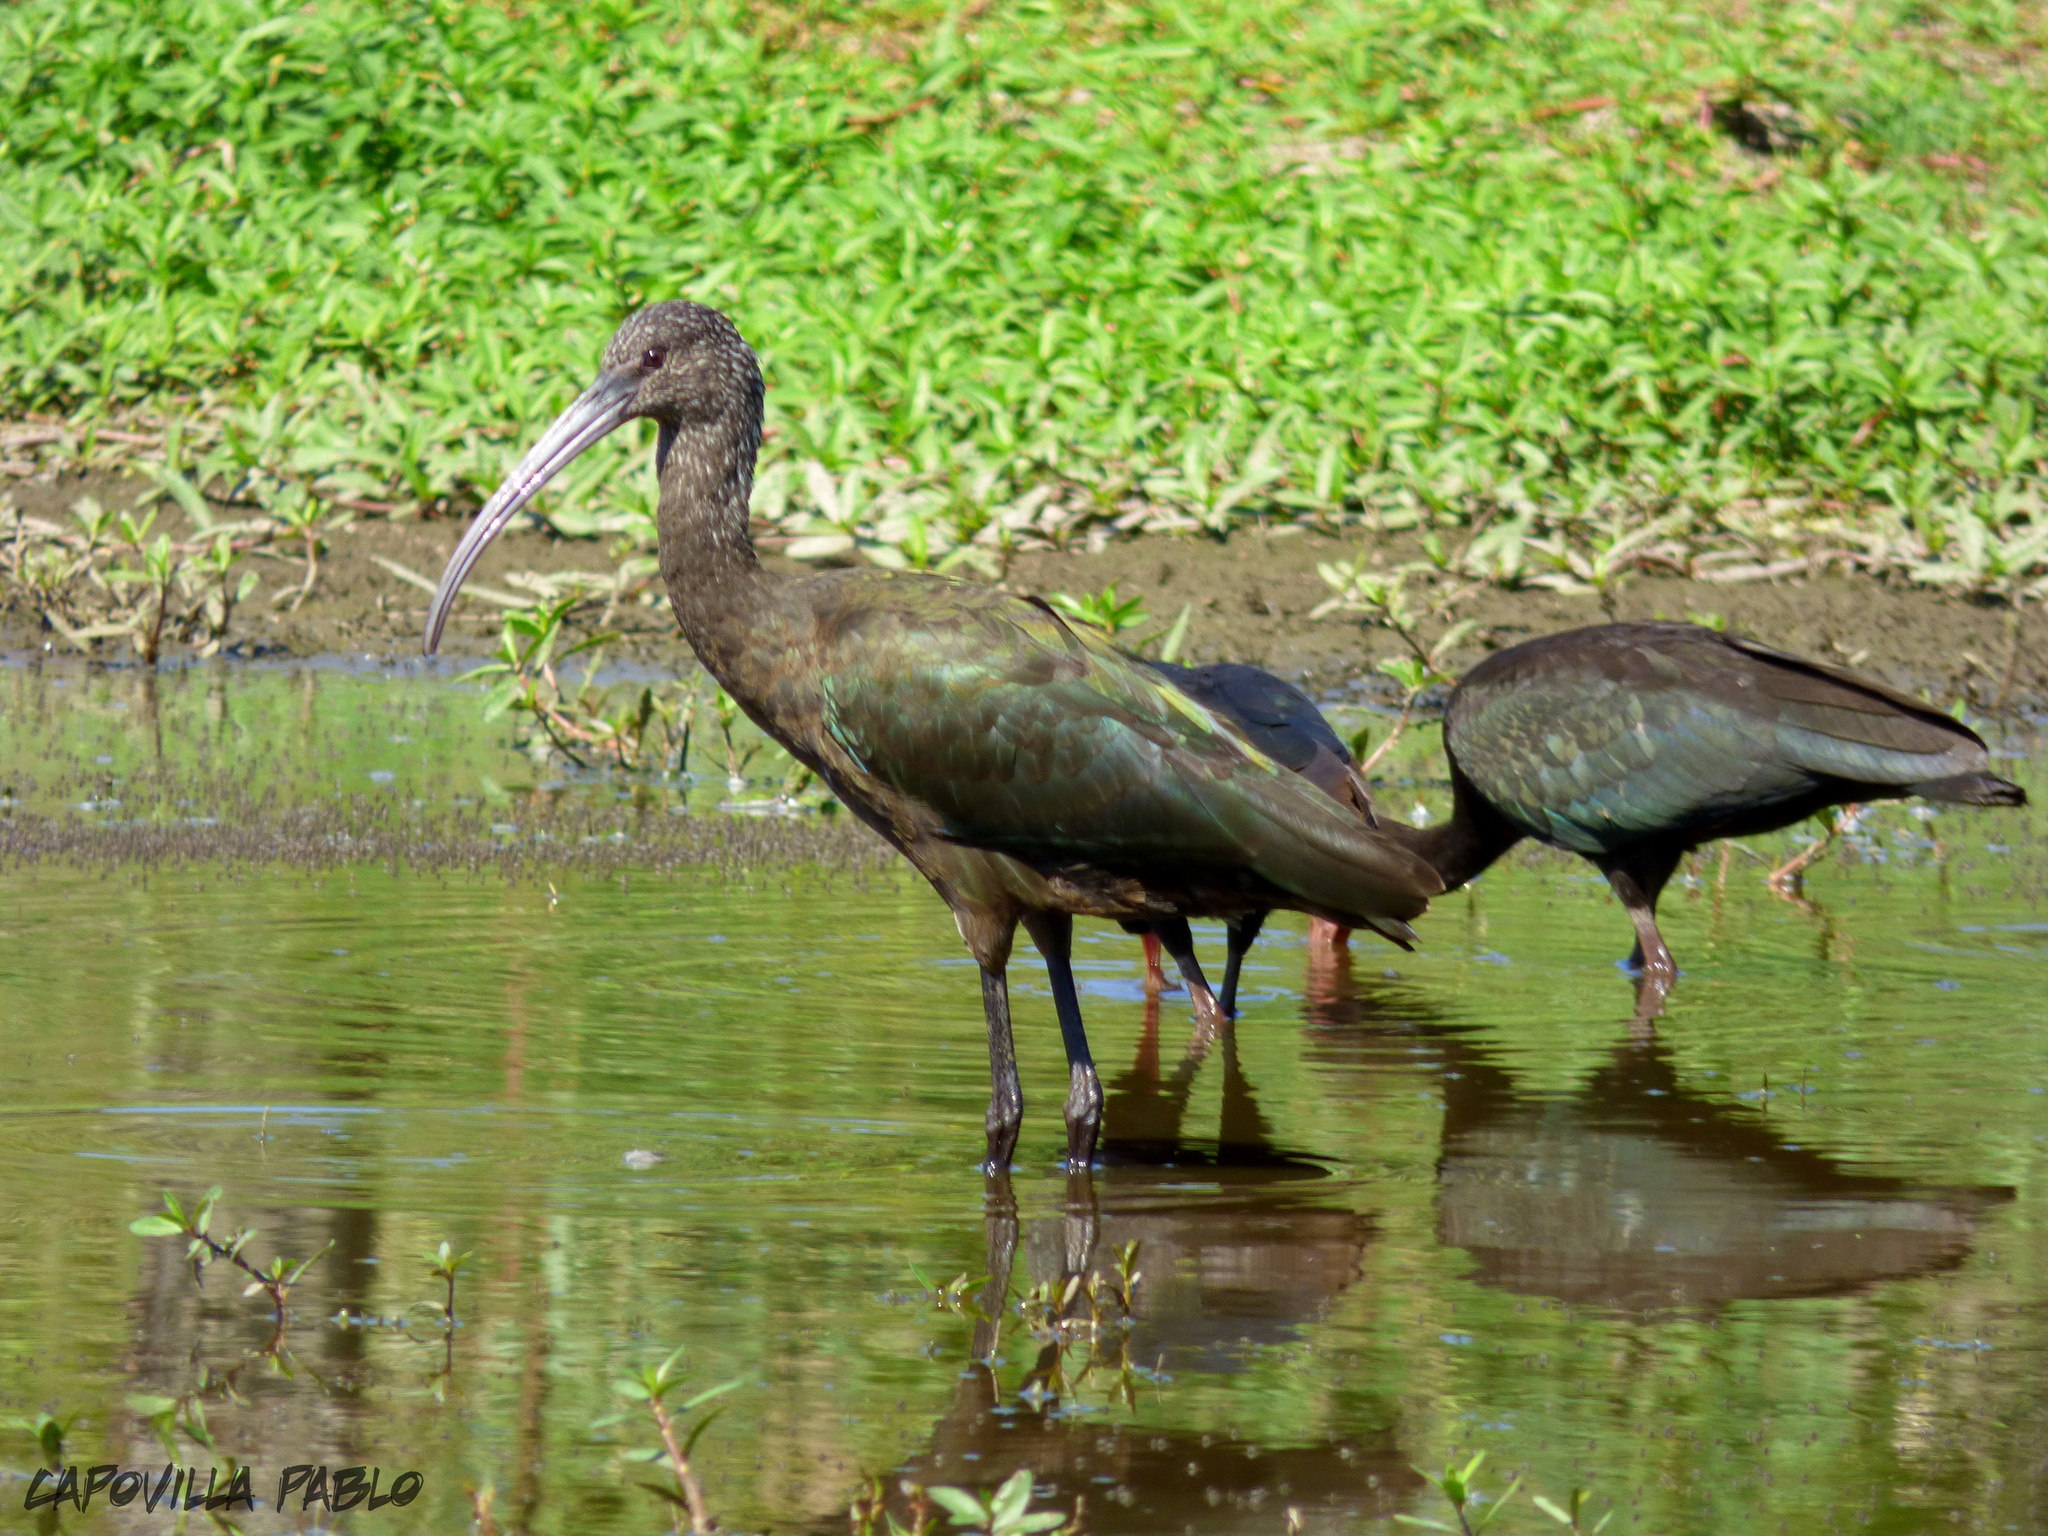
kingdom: Animalia
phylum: Chordata
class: Aves
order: Pelecaniformes
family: Threskiornithidae
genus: Plegadis
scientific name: Plegadis chihi
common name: White-faced ibis
